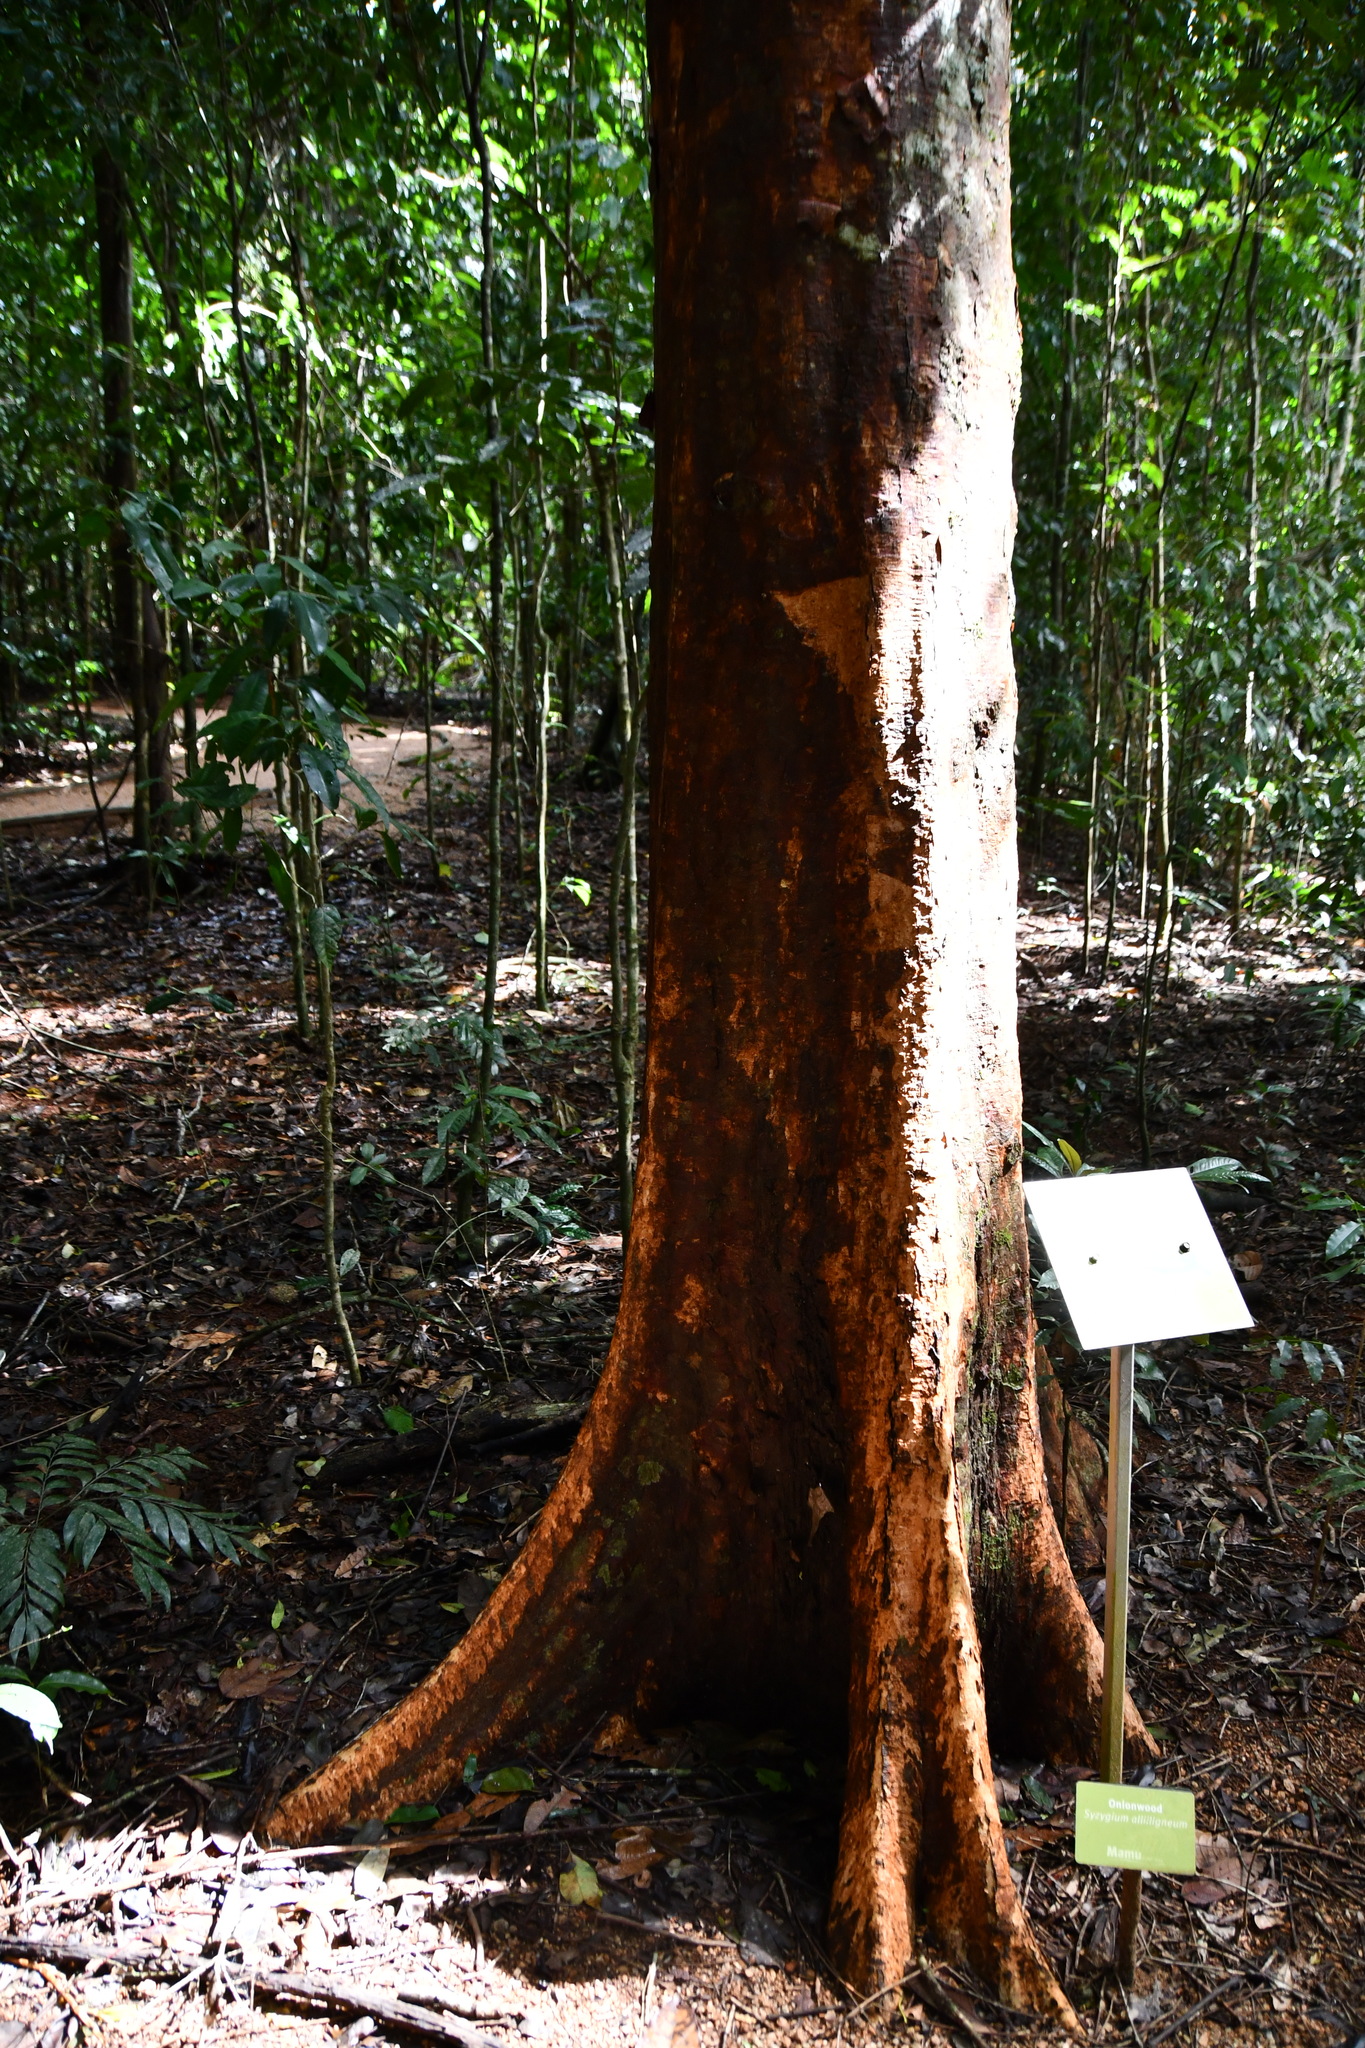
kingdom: Plantae
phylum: Tracheophyta
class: Magnoliopsida
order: Myrtales
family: Myrtaceae
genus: Syzygium
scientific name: Syzygium alliiligneum
